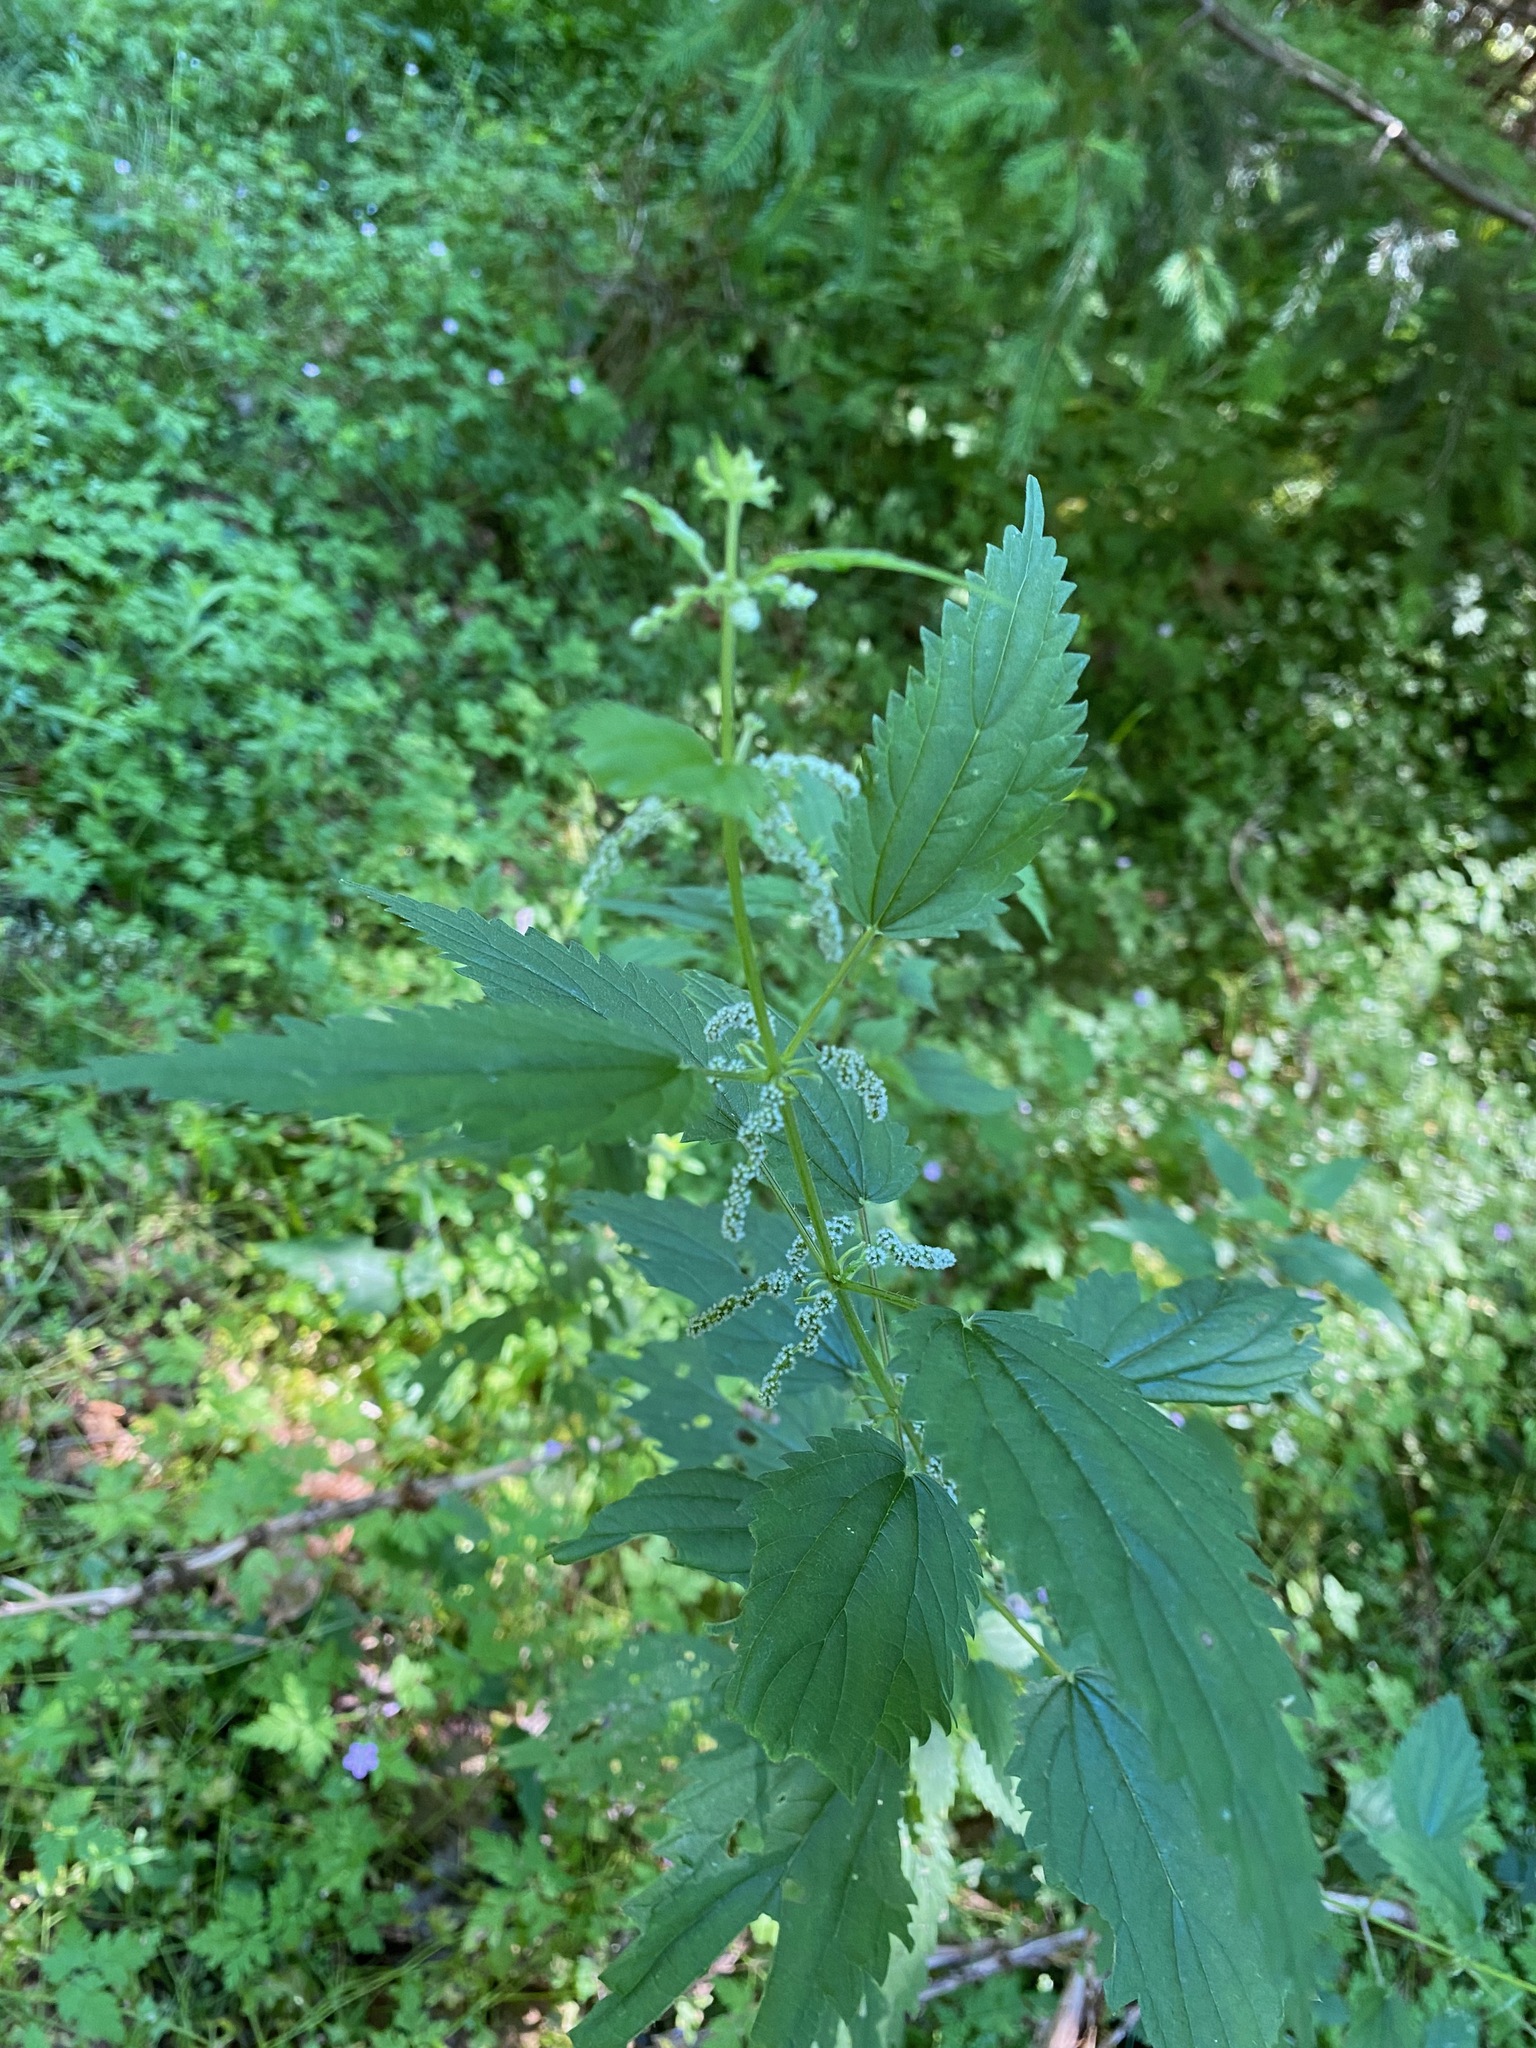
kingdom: Plantae
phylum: Tracheophyta
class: Magnoliopsida
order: Rosales
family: Urticaceae
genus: Urtica
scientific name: Urtica dioica
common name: Common nettle
